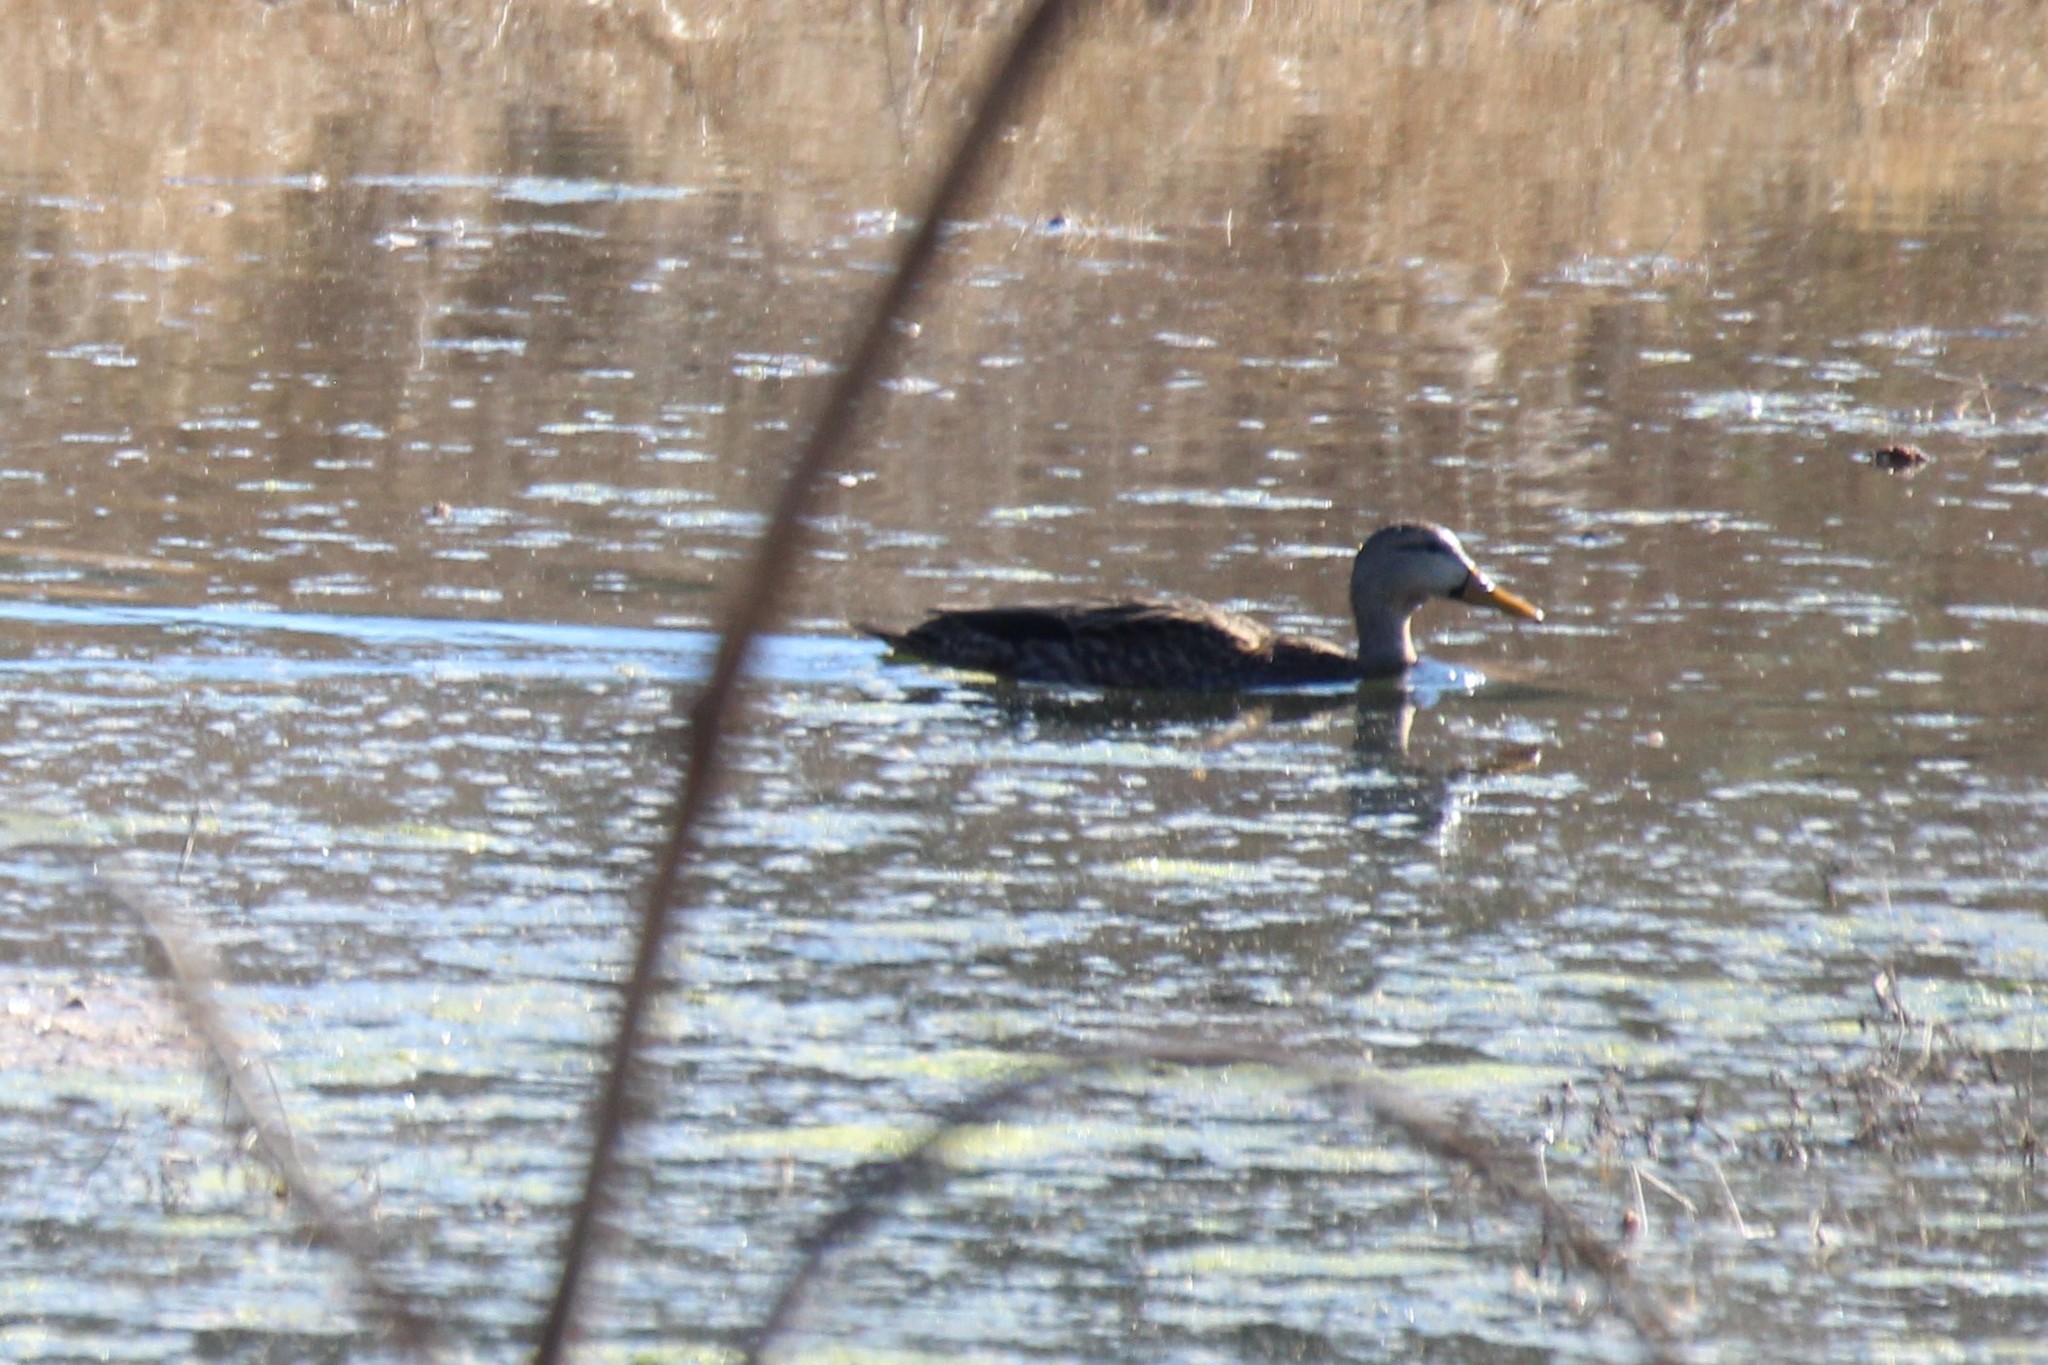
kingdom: Animalia
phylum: Chordata
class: Aves
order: Anseriformes
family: Anatidae
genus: Anas
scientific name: Anas fulvigula
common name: Mottled duck
